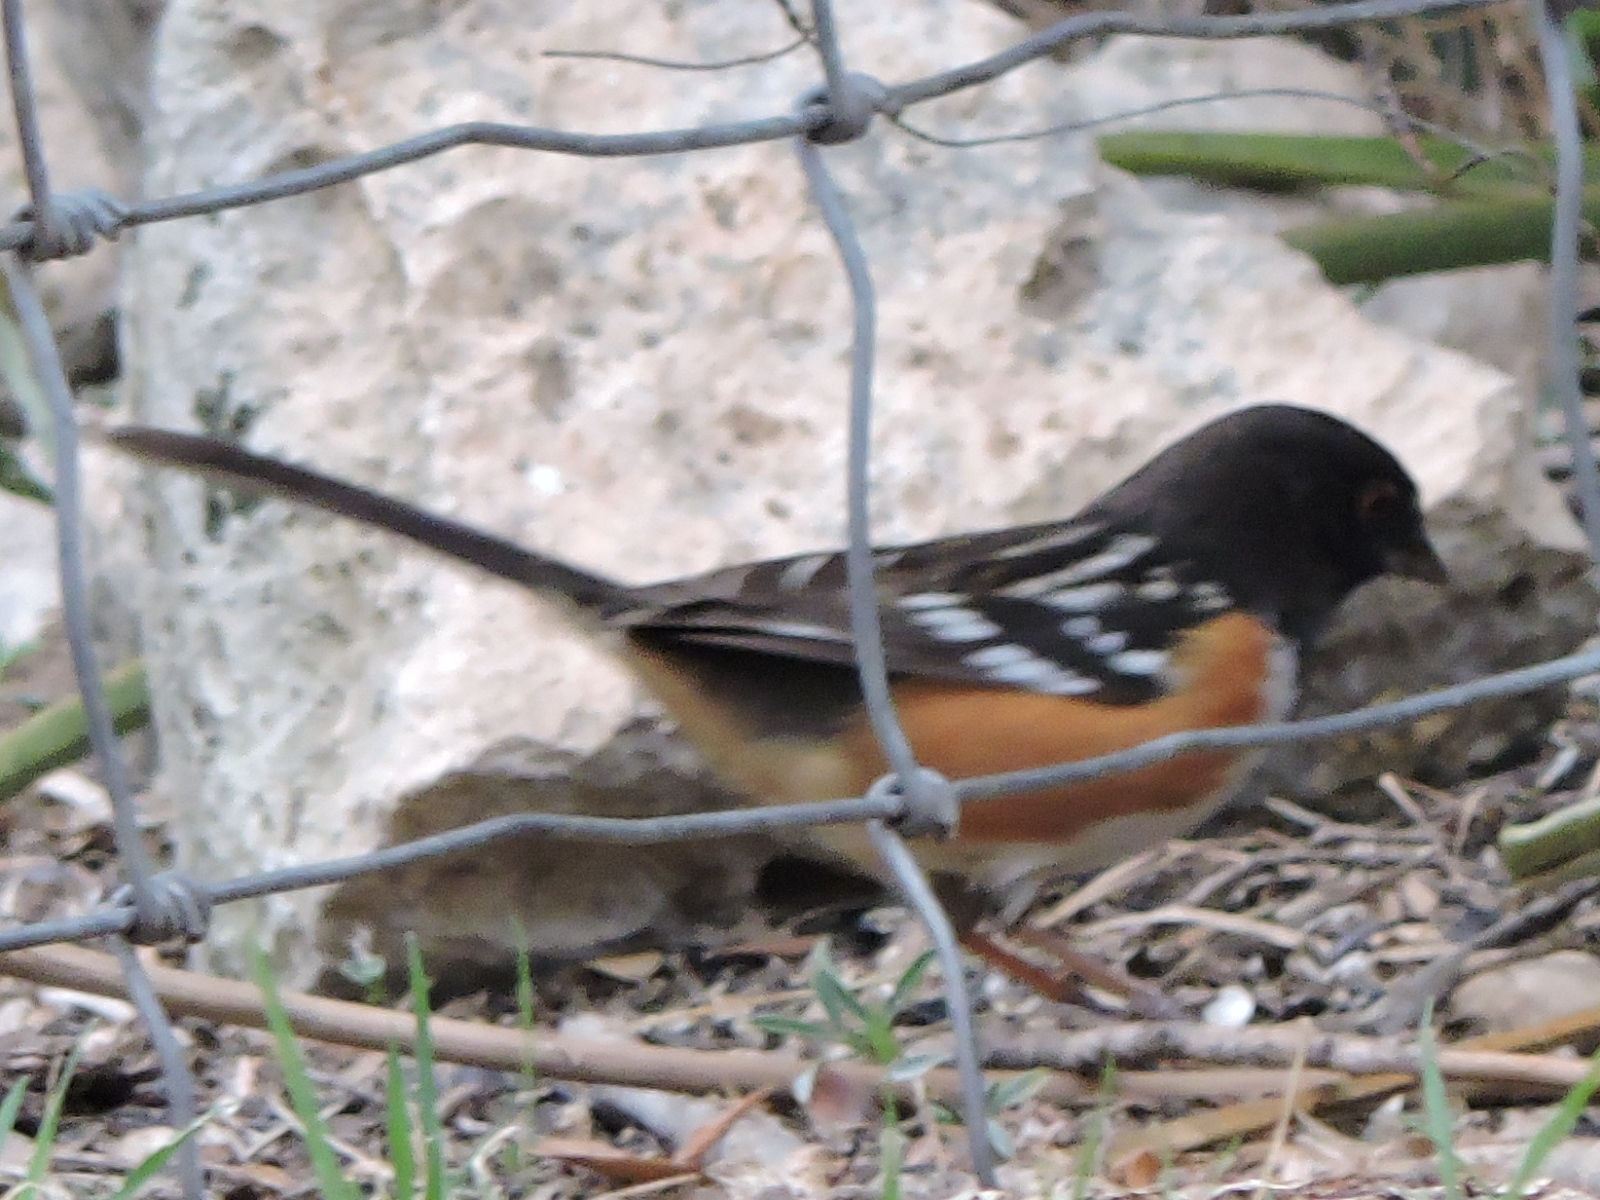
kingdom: Animalia
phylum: Chordata
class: Aves
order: Passeriformes
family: Passerellidae
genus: Pipilo
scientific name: Pipilo maculatus
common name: Spotted towhee
